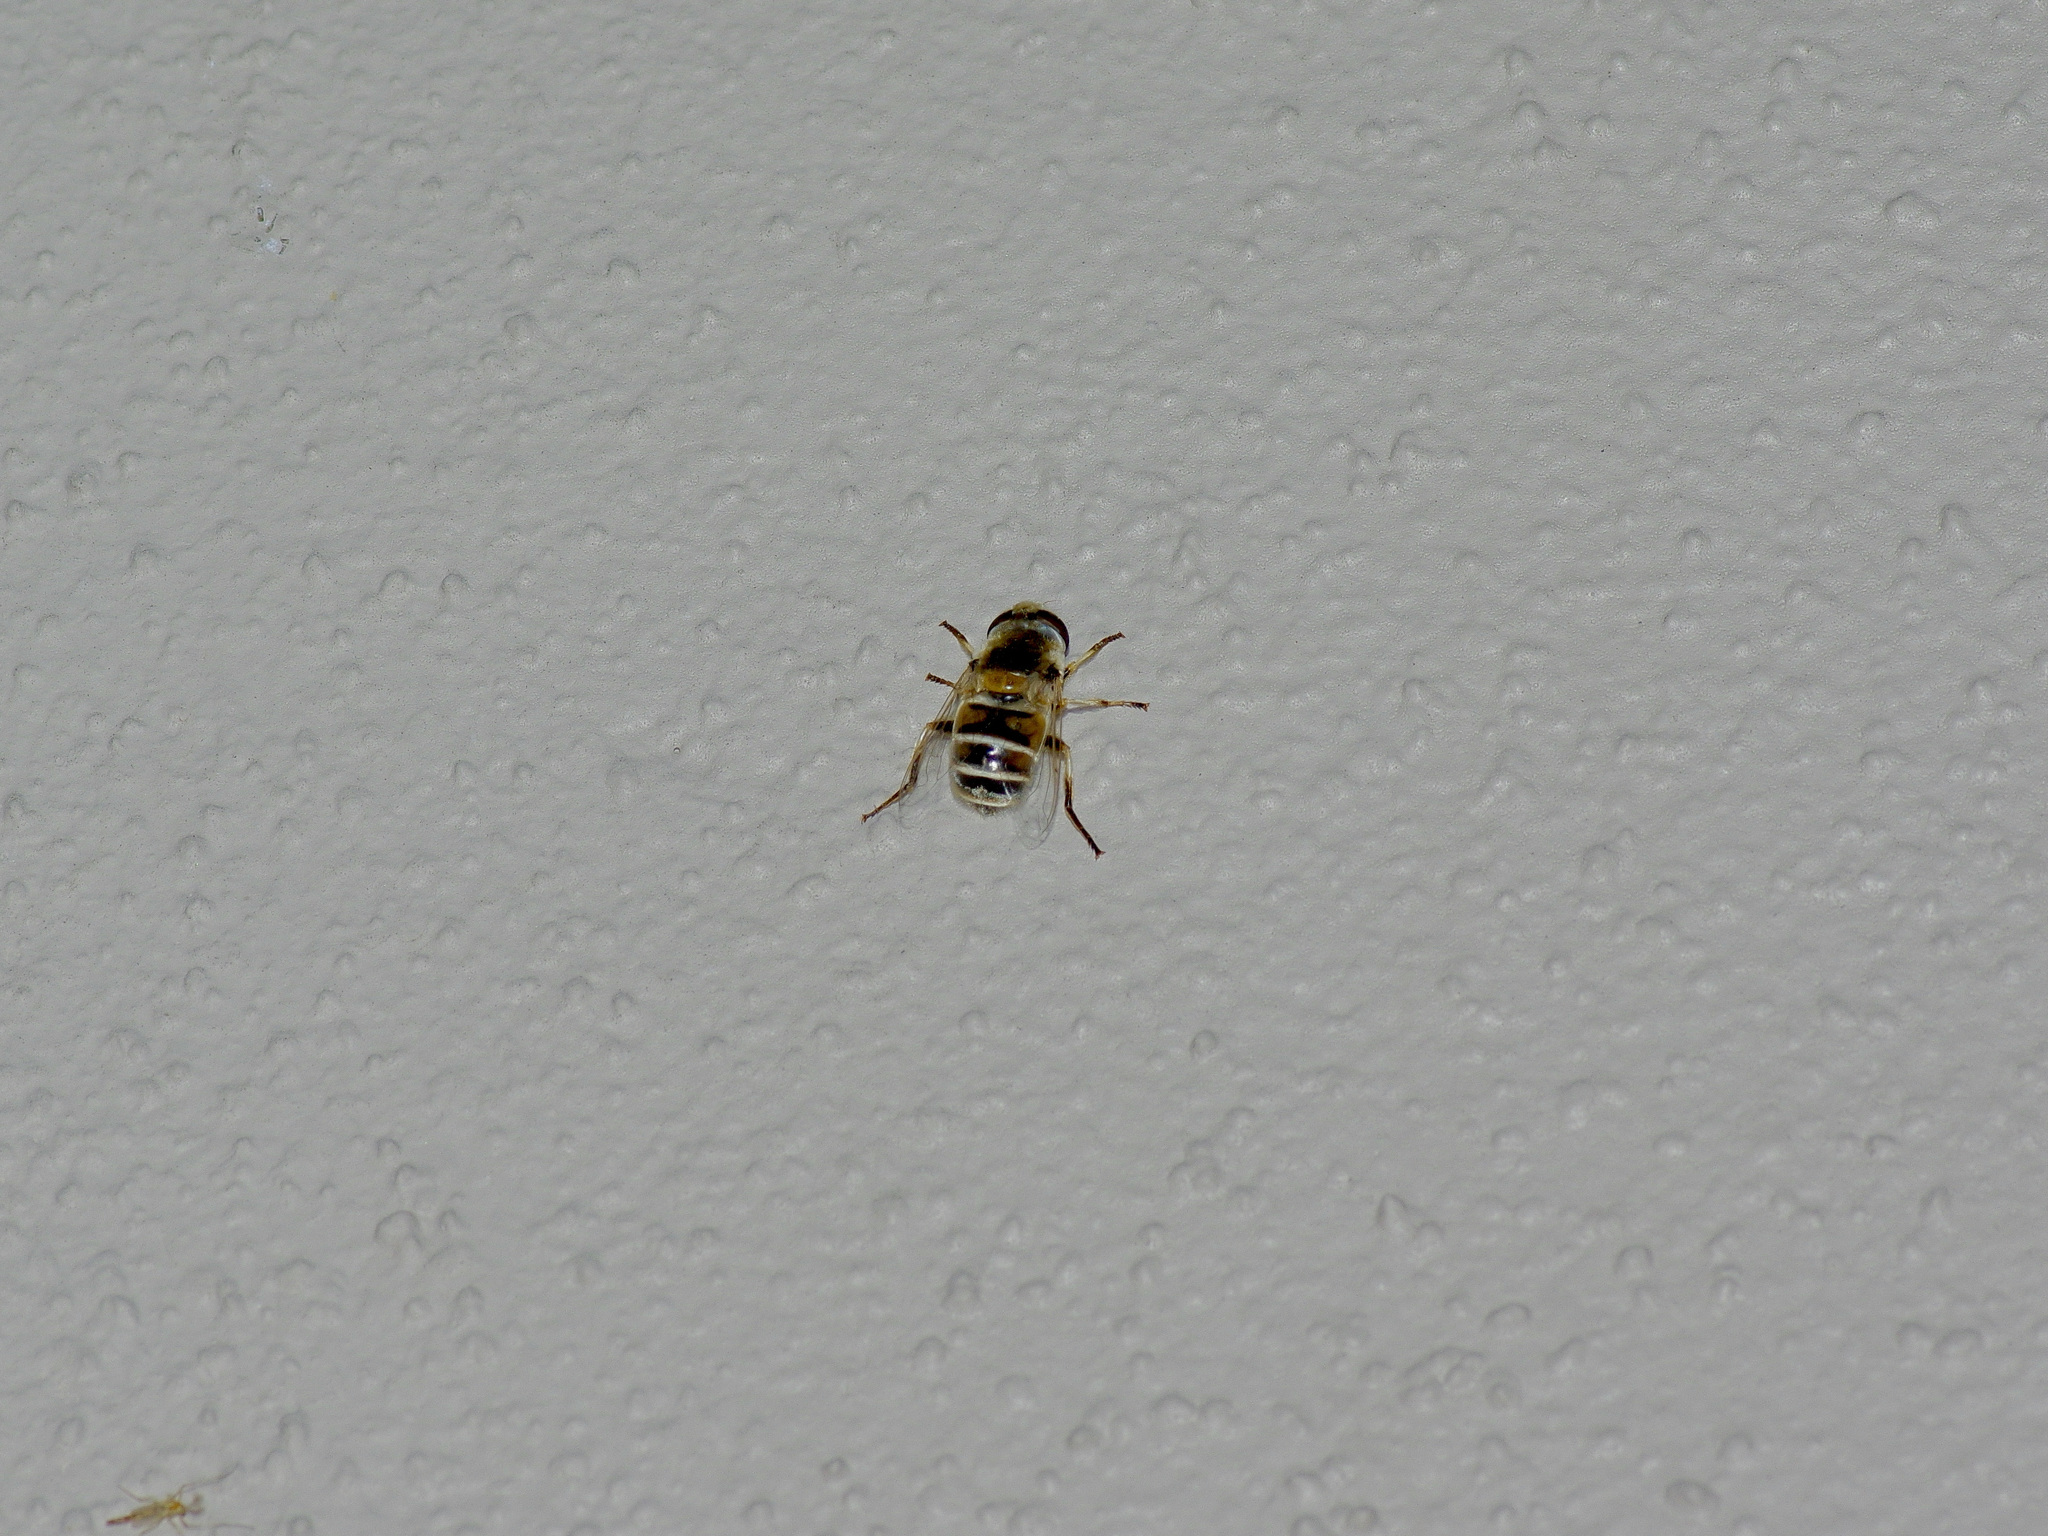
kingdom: Animalia
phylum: Arthropoda
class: Insecta
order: Diptera
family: Syrphidae
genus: Eristalis
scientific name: Eristalis stipator
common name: Yellow-shouldered drone fly
